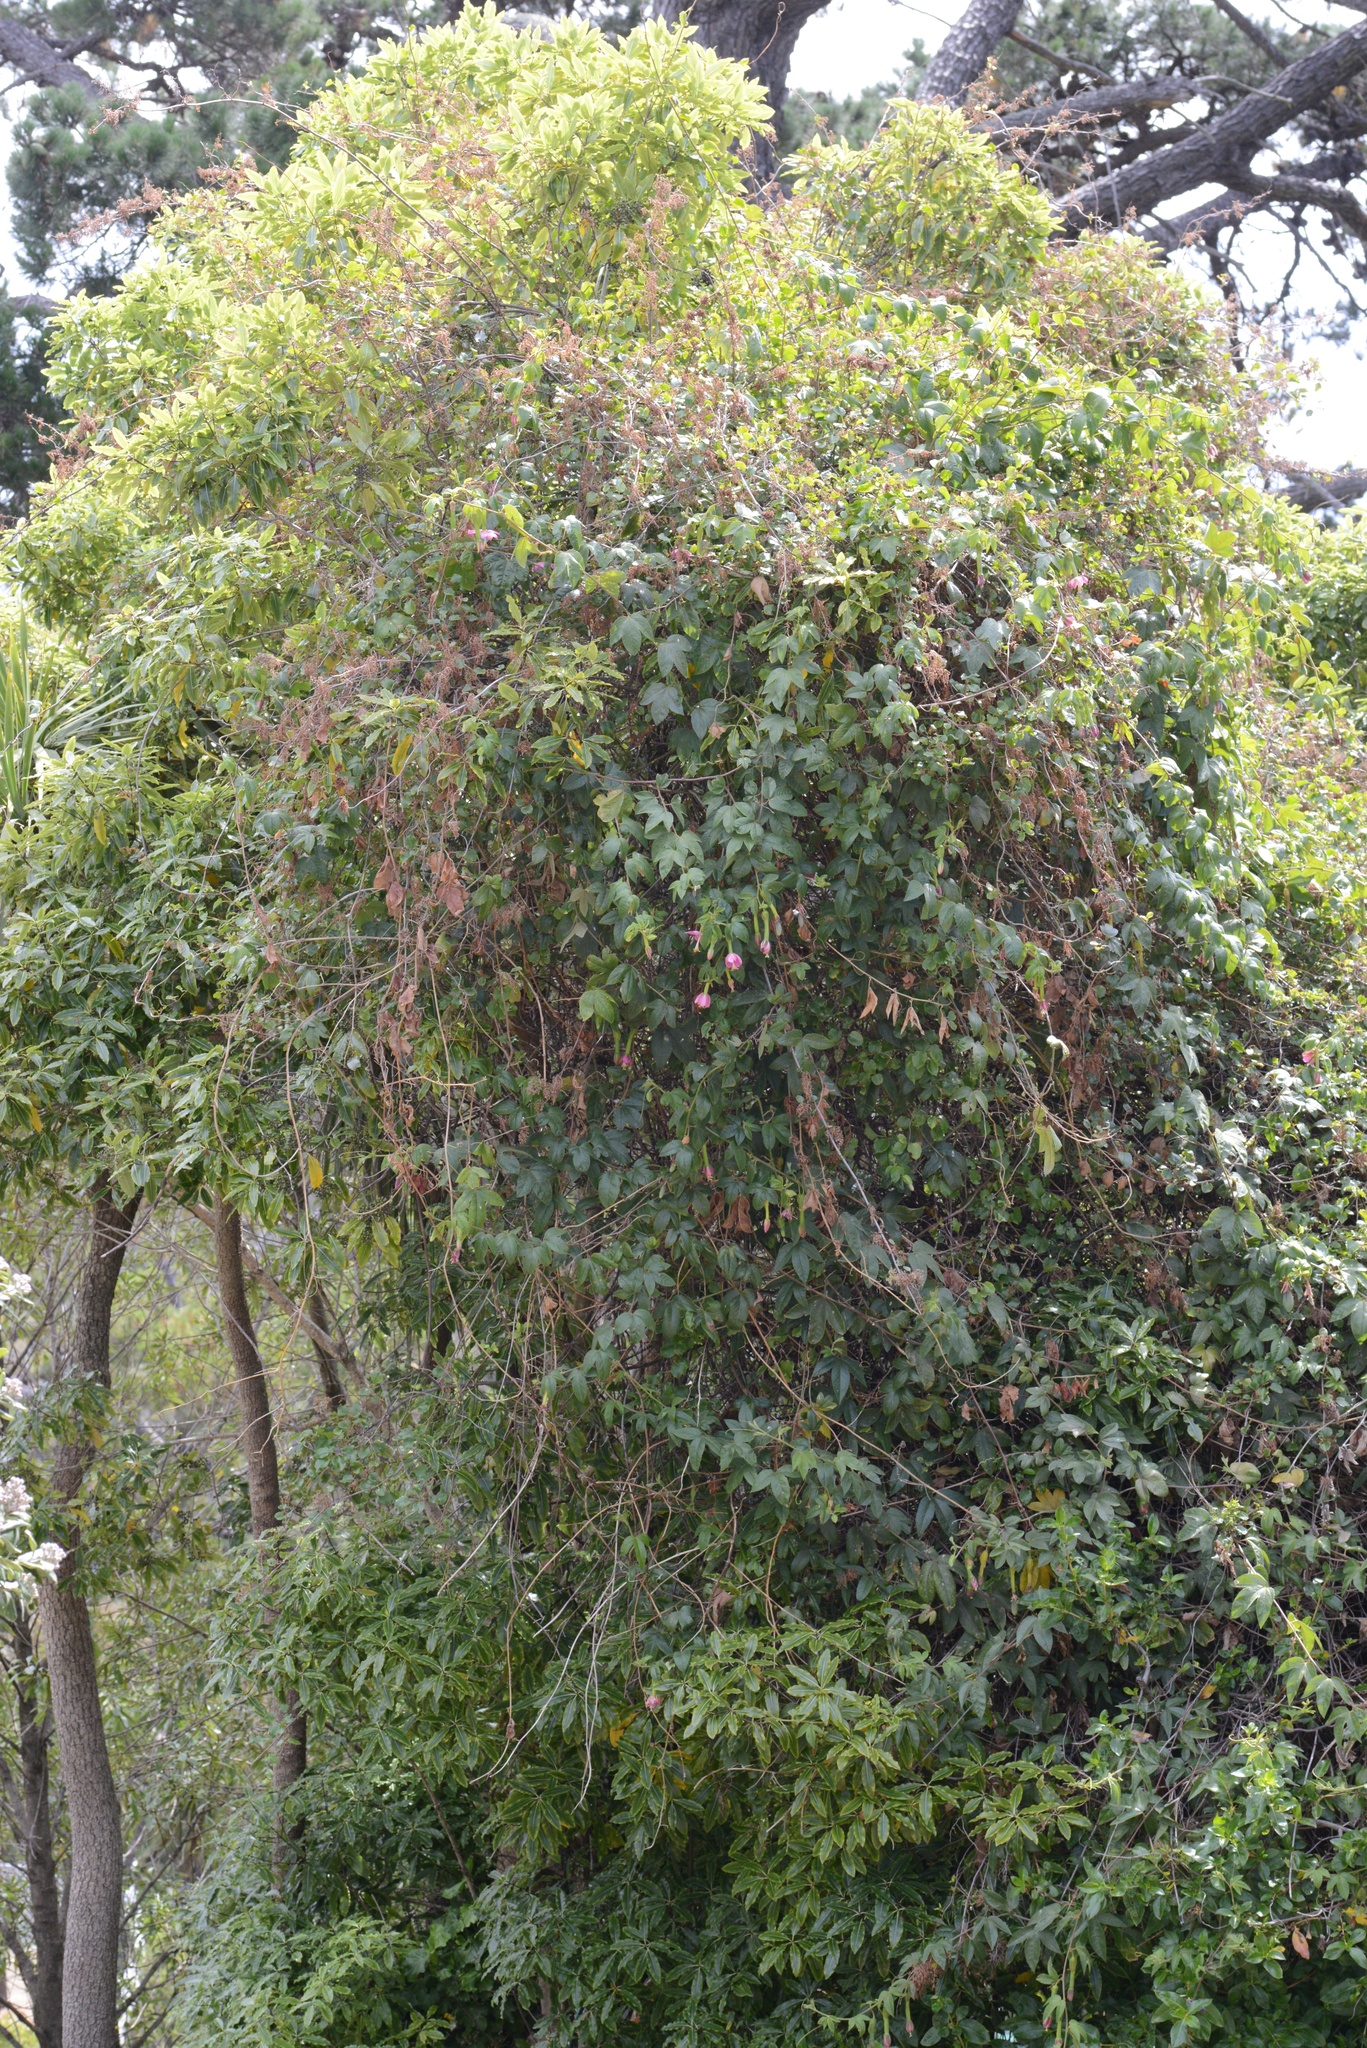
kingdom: Plantae
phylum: Tracheophyta
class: Magnoliopsida
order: Malpighiales
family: Passifloraceae
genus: Passiflora
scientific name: Passiflora tripartita
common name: Banana poka
